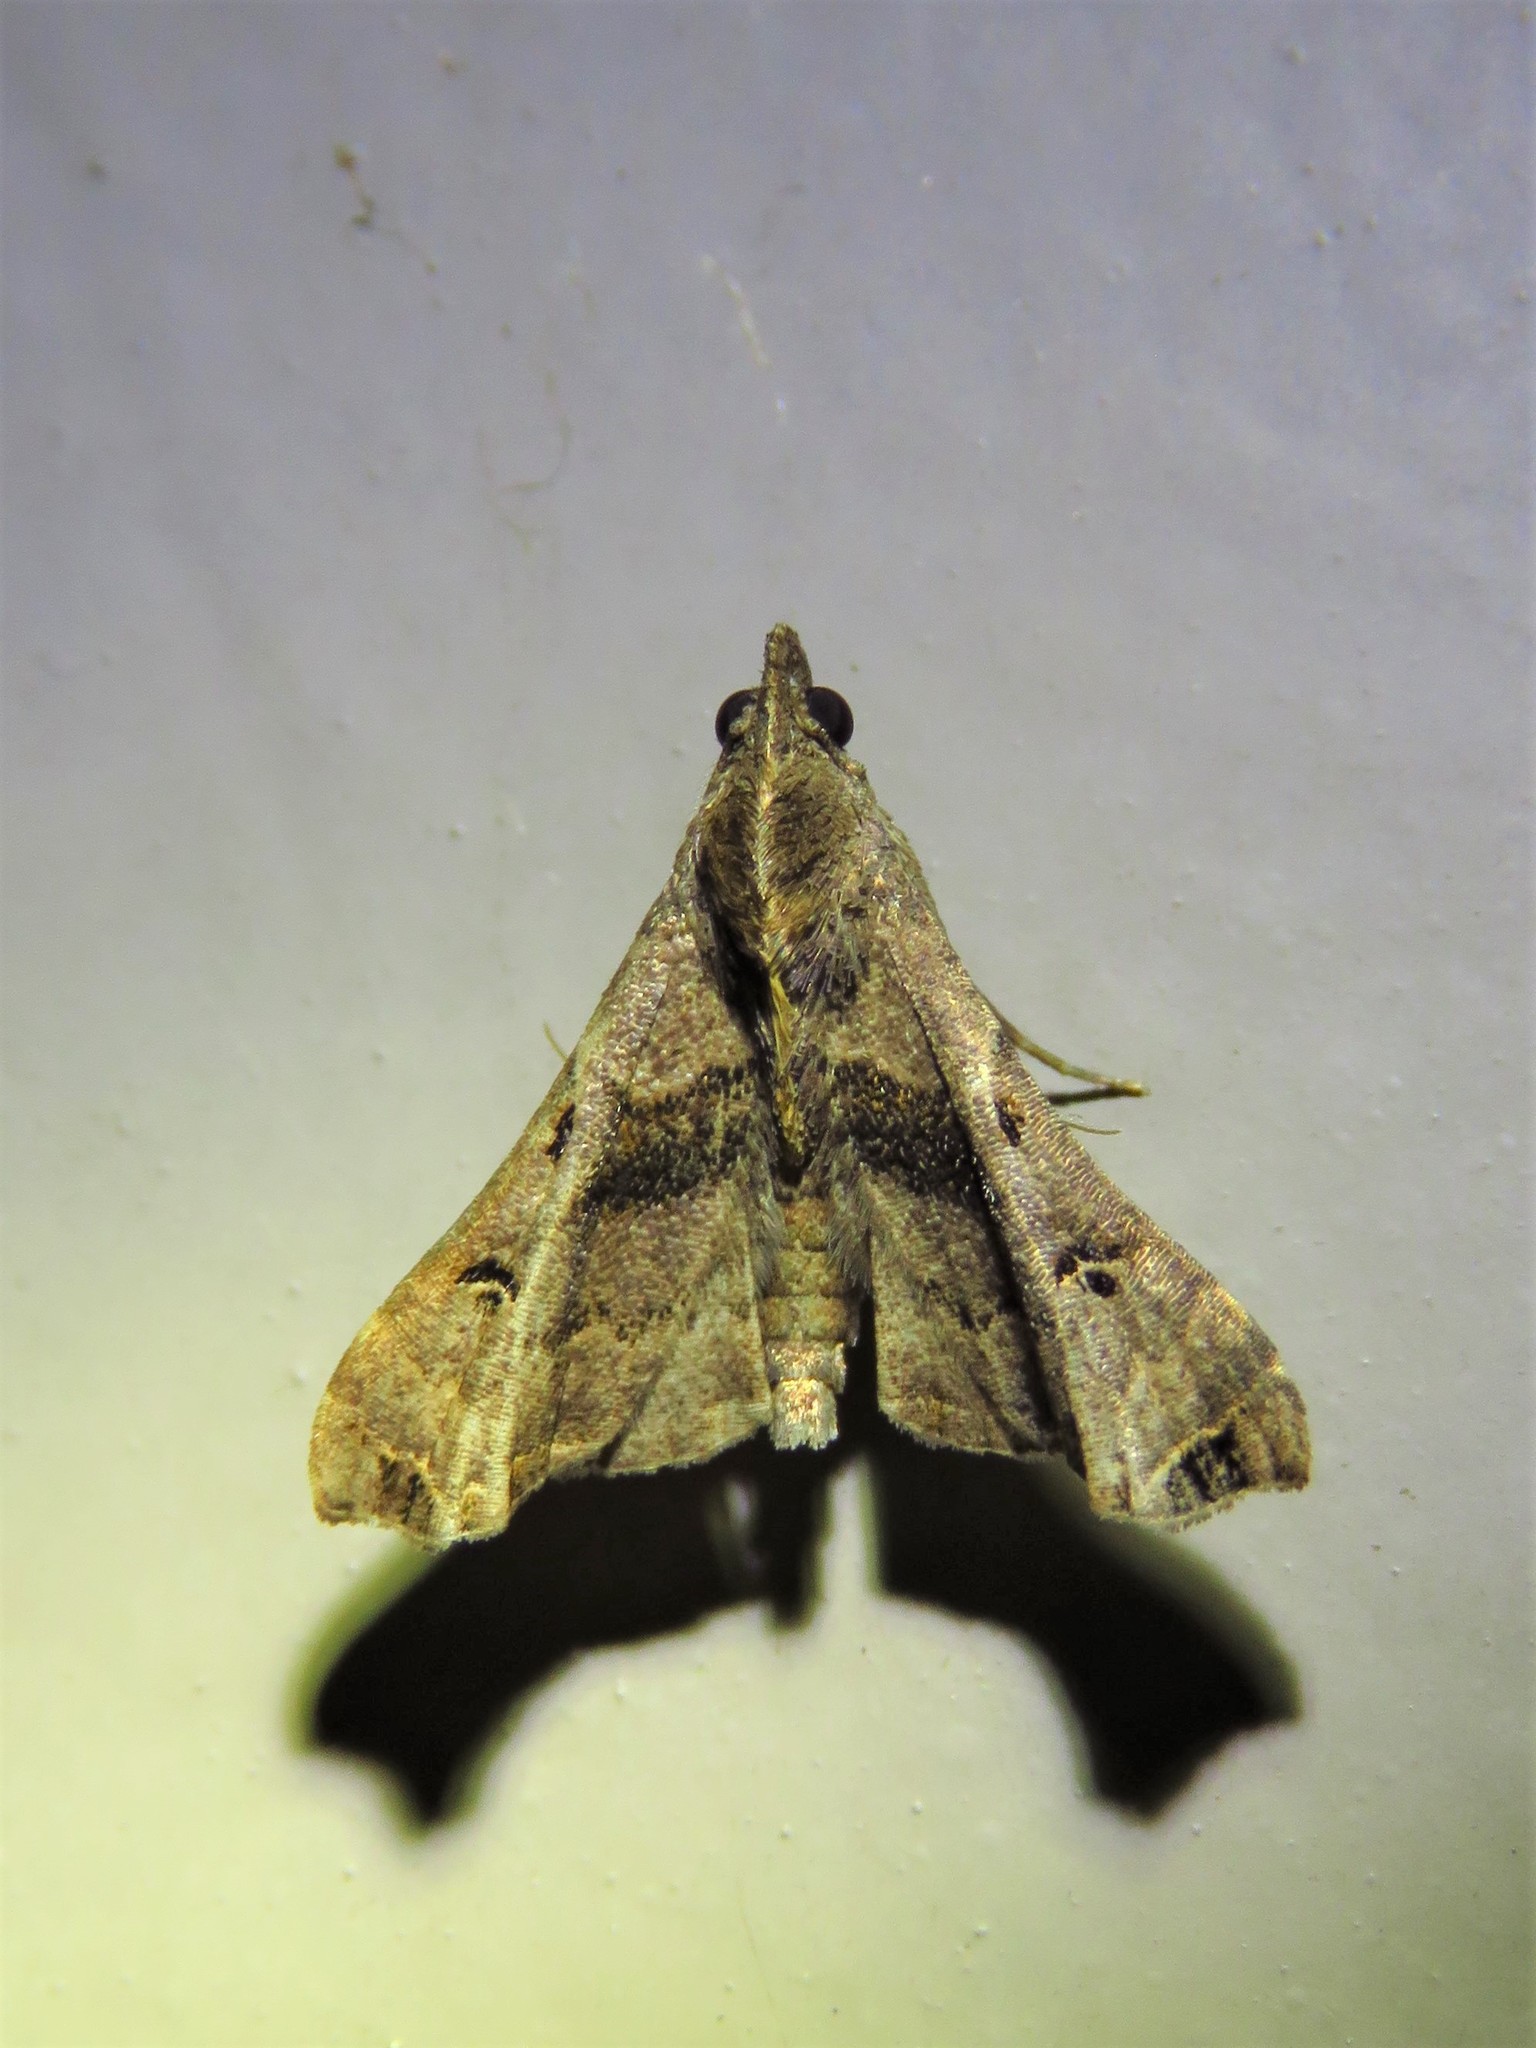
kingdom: Animalia
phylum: Arthropoda
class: Insecta
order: Lepidoptera
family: Erebidae
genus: Palthis
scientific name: Palthis asopialis
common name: Faint-spotted palthis moth
